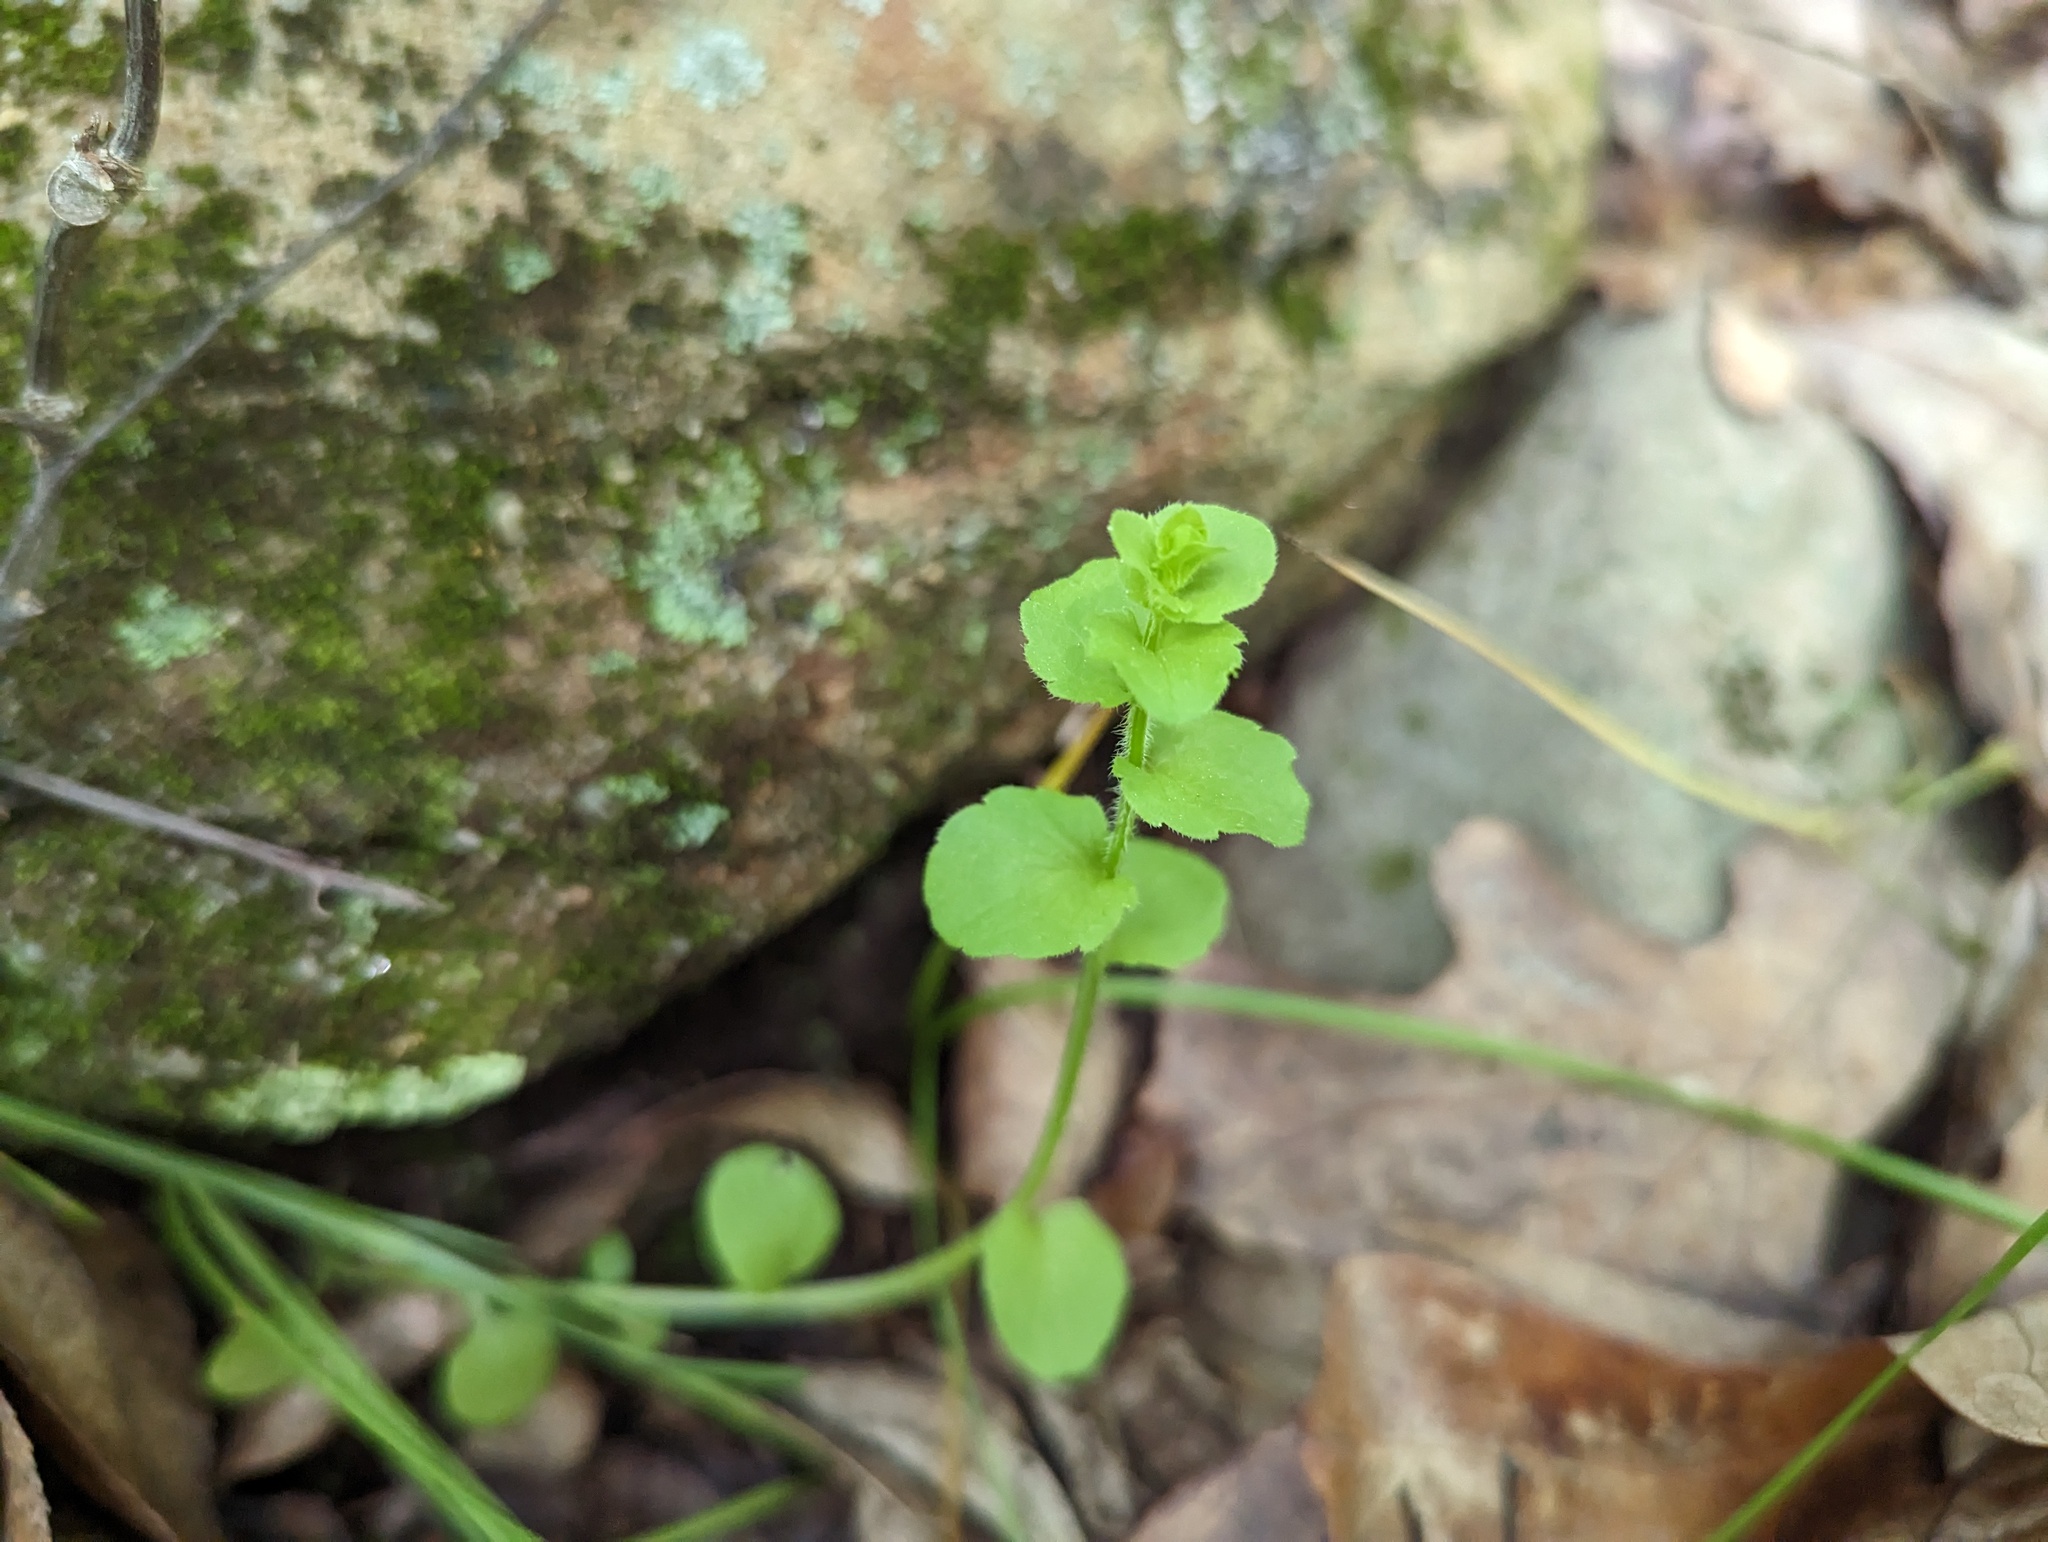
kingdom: Plantae
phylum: Tracheophyta
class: Magnoliopsida
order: Asterales
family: Campanulaceae
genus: Triodanis
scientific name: Triodanis perfoliata
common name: Clasping venus' looking-glass
